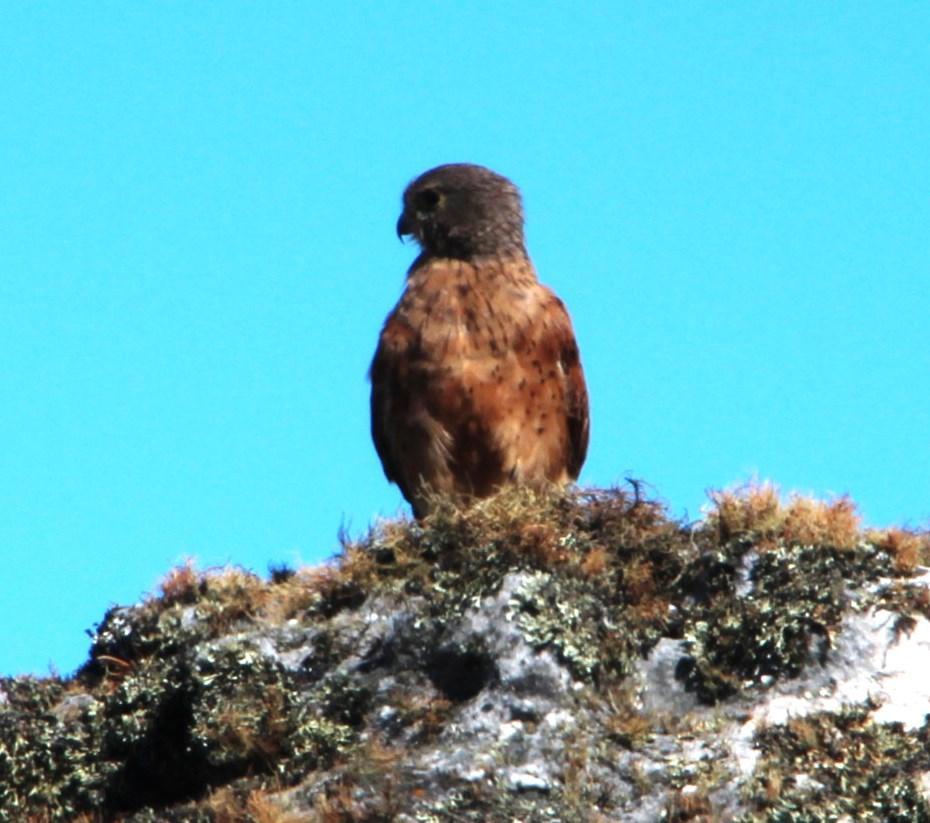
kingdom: Animalia
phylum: Chordata
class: Aves
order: Falconiformes
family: Falconidae
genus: Falco
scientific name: Falco rupicolus
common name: Rock kestrel
